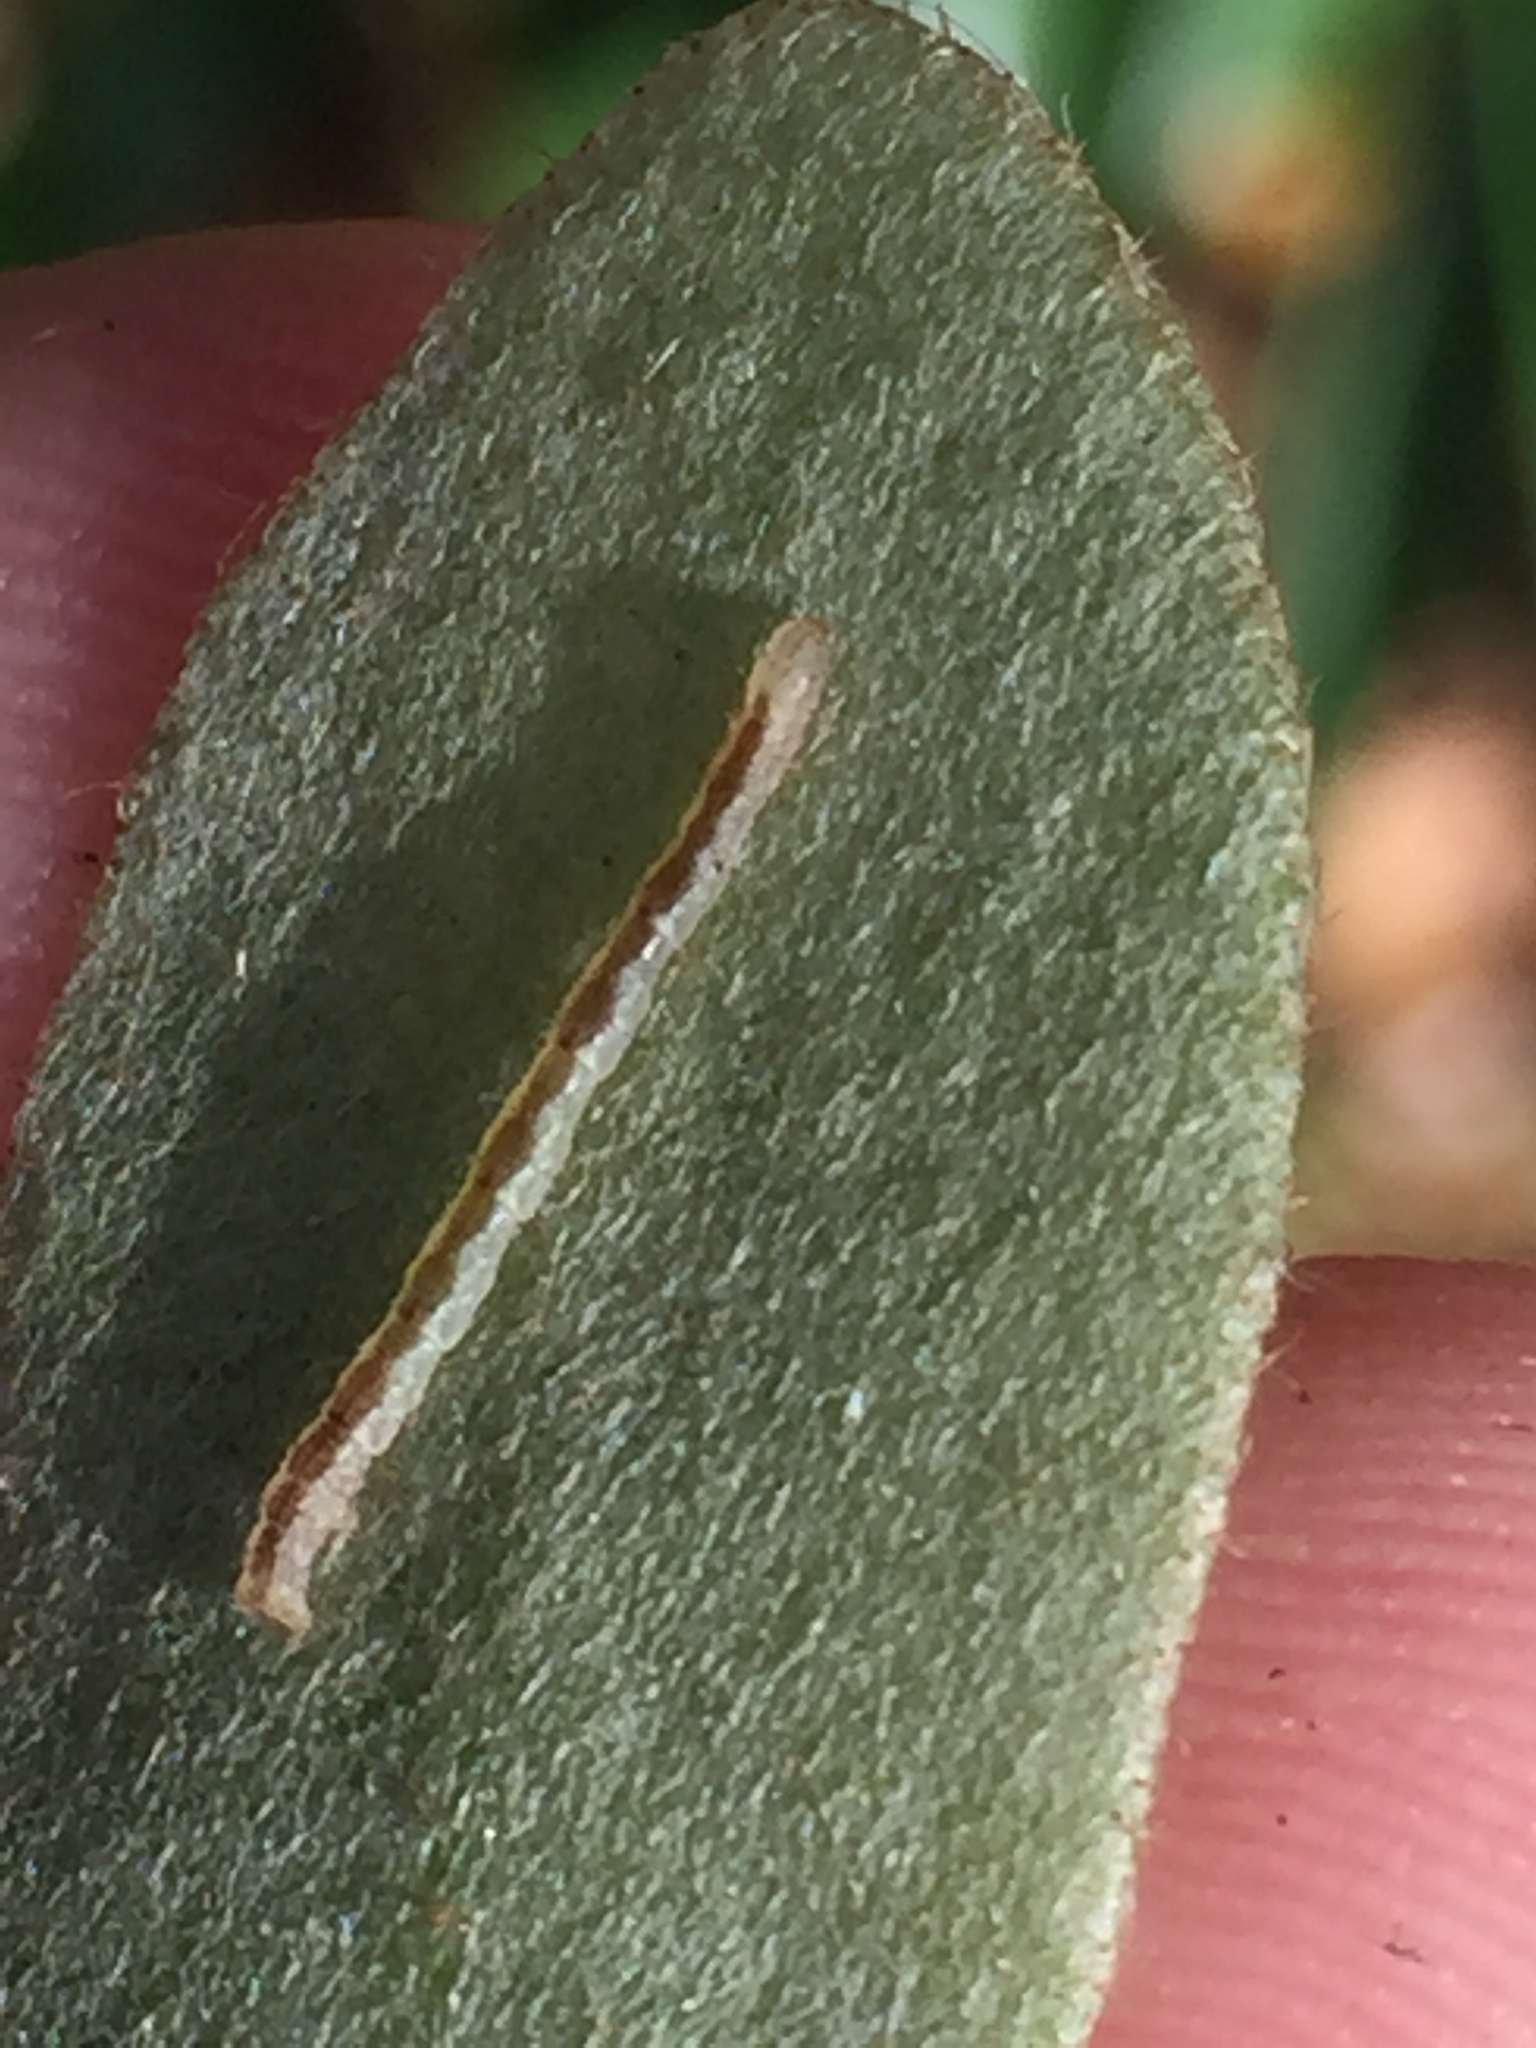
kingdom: Animalia
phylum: Arthropoda
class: Insecta
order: Lepidoptera
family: Geometridae
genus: Sarisa
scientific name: Sarisa muriferata
